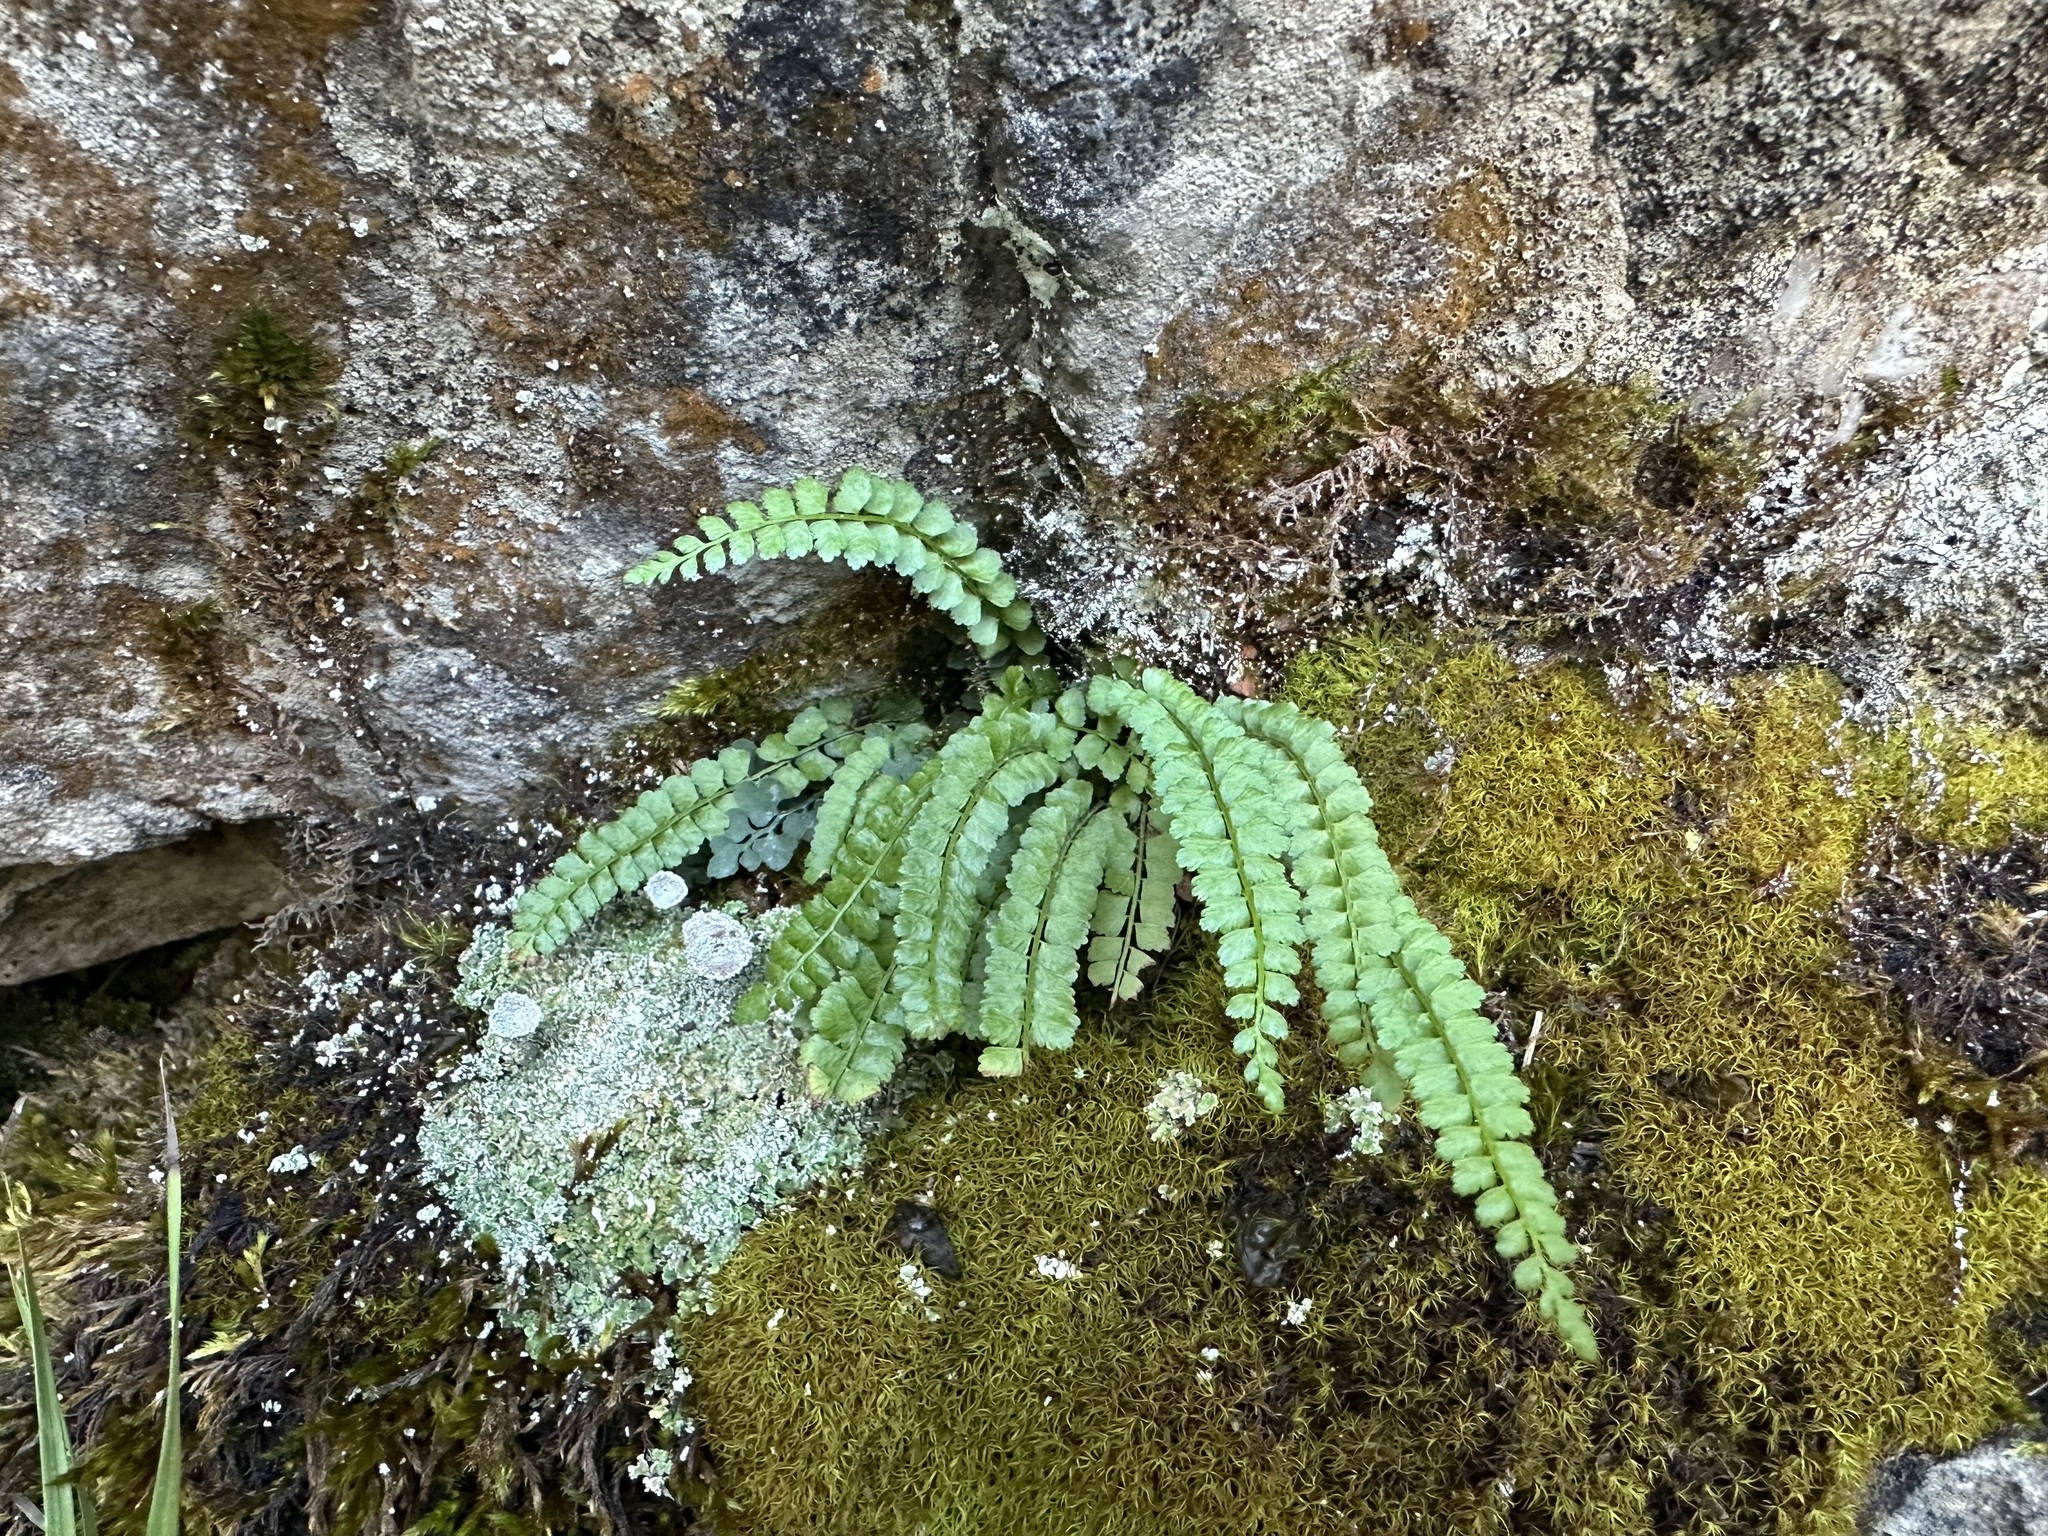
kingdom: Plantae
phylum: Tracheophyta
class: Polypodiopsida
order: Polypodiales
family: Aspleniaceae
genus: Asplenium
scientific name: Asplenium viride
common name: Green spleenwort
